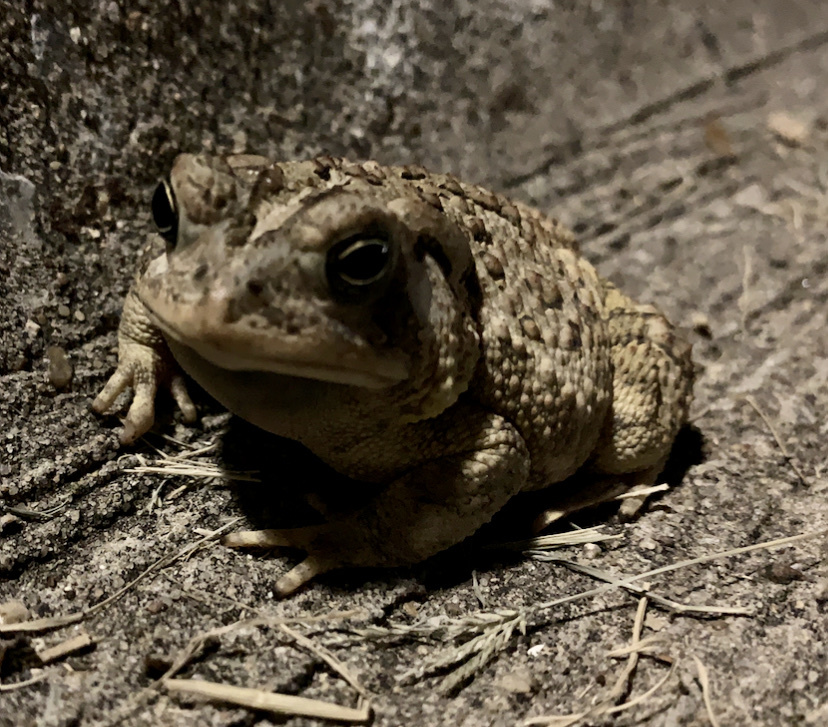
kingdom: Animalia
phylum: Chordata
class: Amphibia
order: Anura
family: Bufonidae
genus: Incilius
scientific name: Incilius nebulifer
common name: Gulf coast toad
